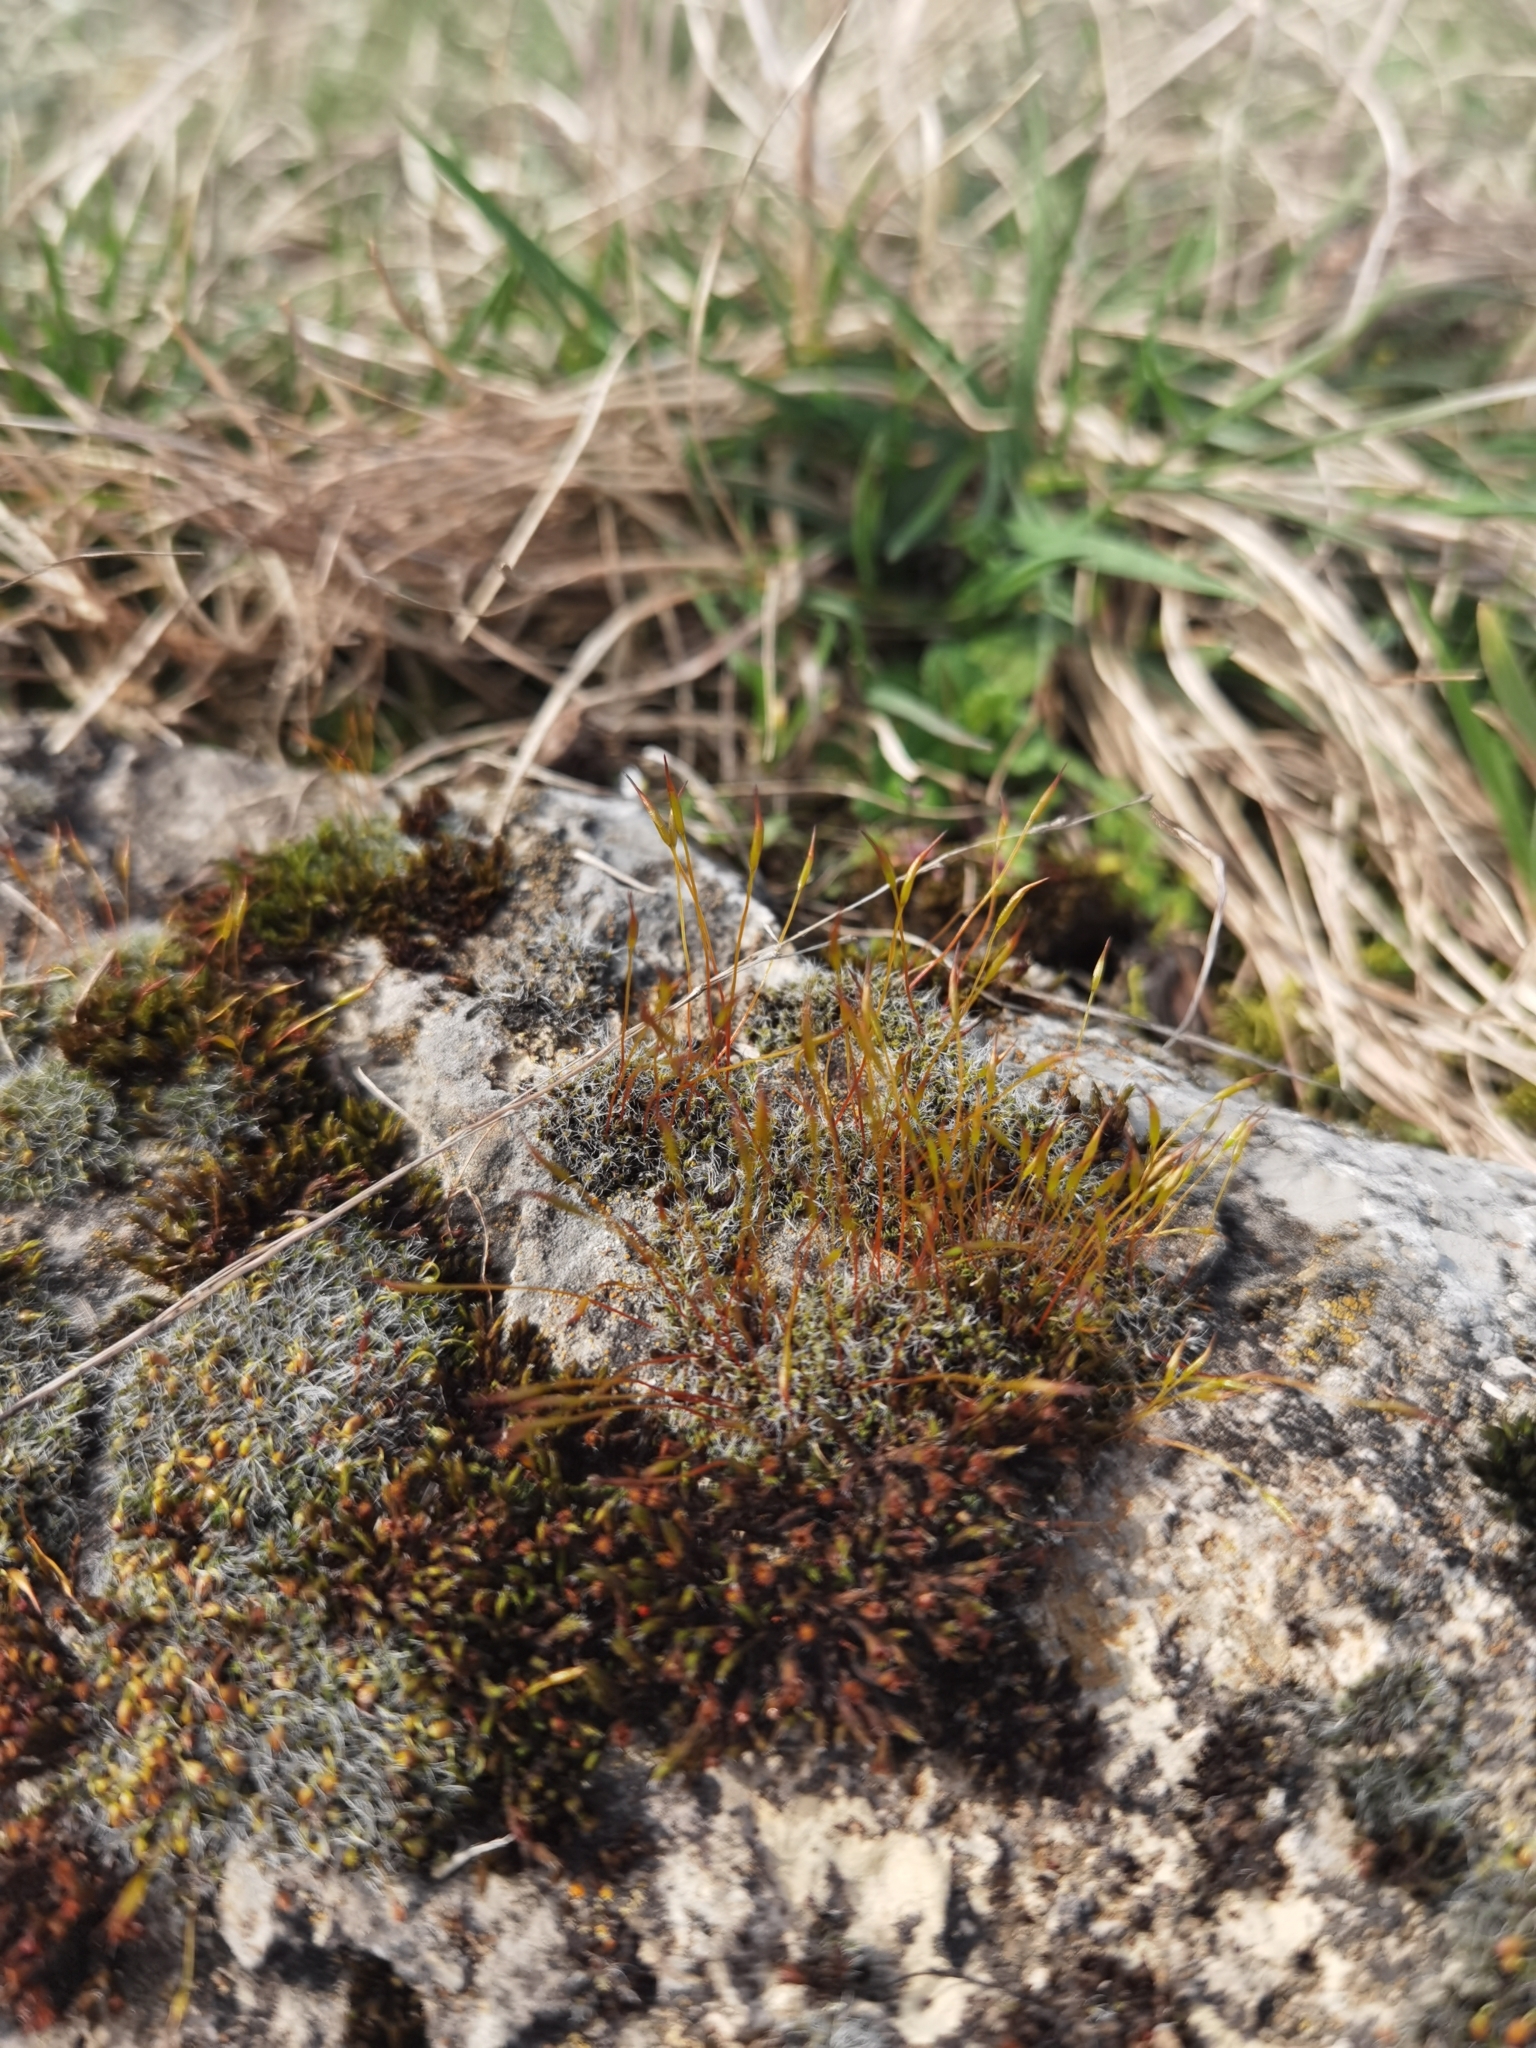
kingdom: Plantae
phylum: Bryophyta
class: Bryopsida
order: Grimmiales
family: Grimmiaceae
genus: Grimmia
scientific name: Grimmia pulvinata
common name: Grey-cushioned grimmia
